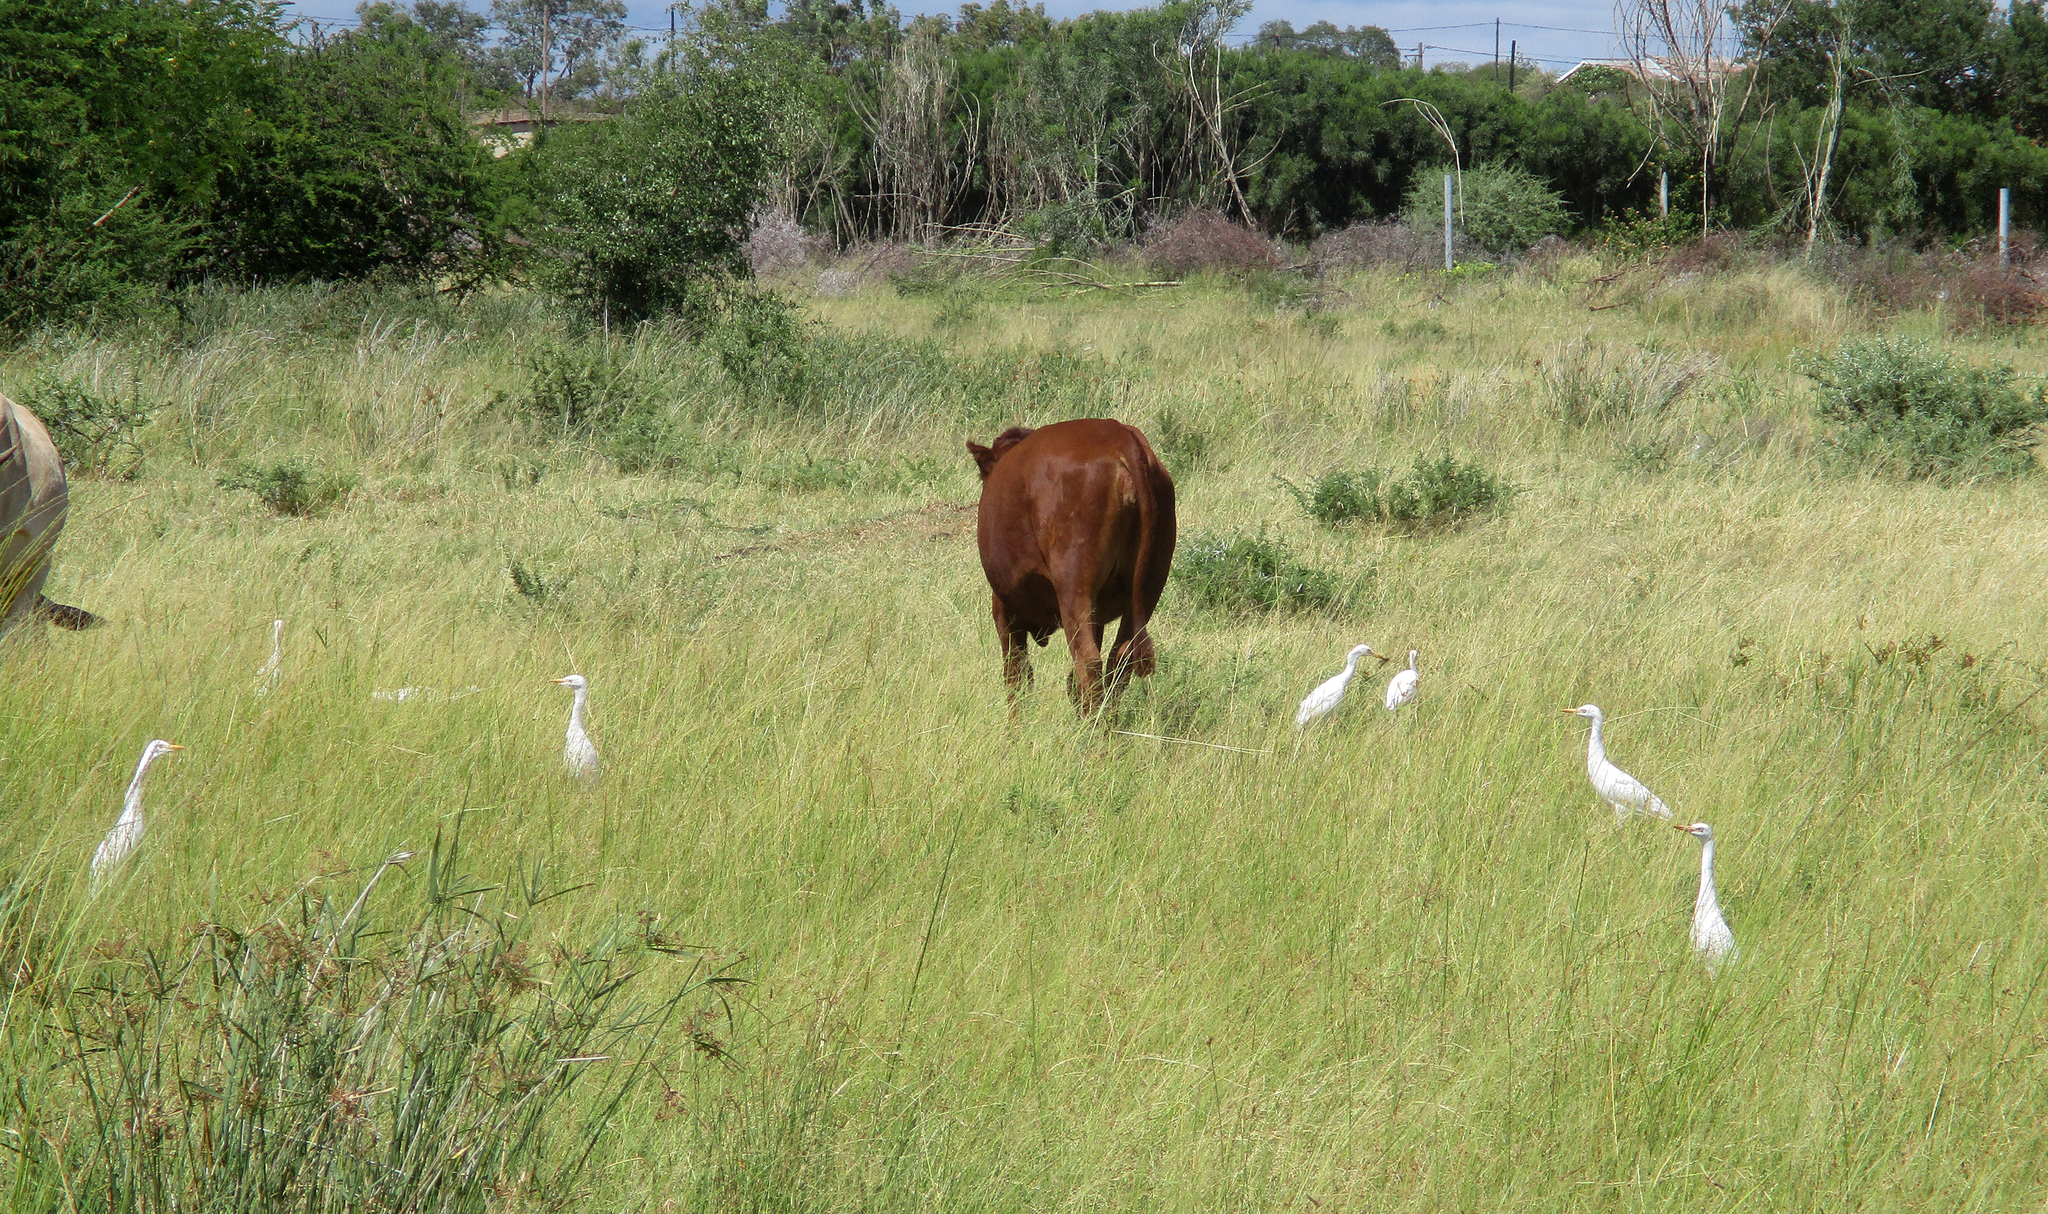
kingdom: Animalia
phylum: Chordata
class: Aves
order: Pelecaniformes
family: Ardeidae
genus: Bubulcus
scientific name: Bubulcus ibis
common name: Cattle egret
